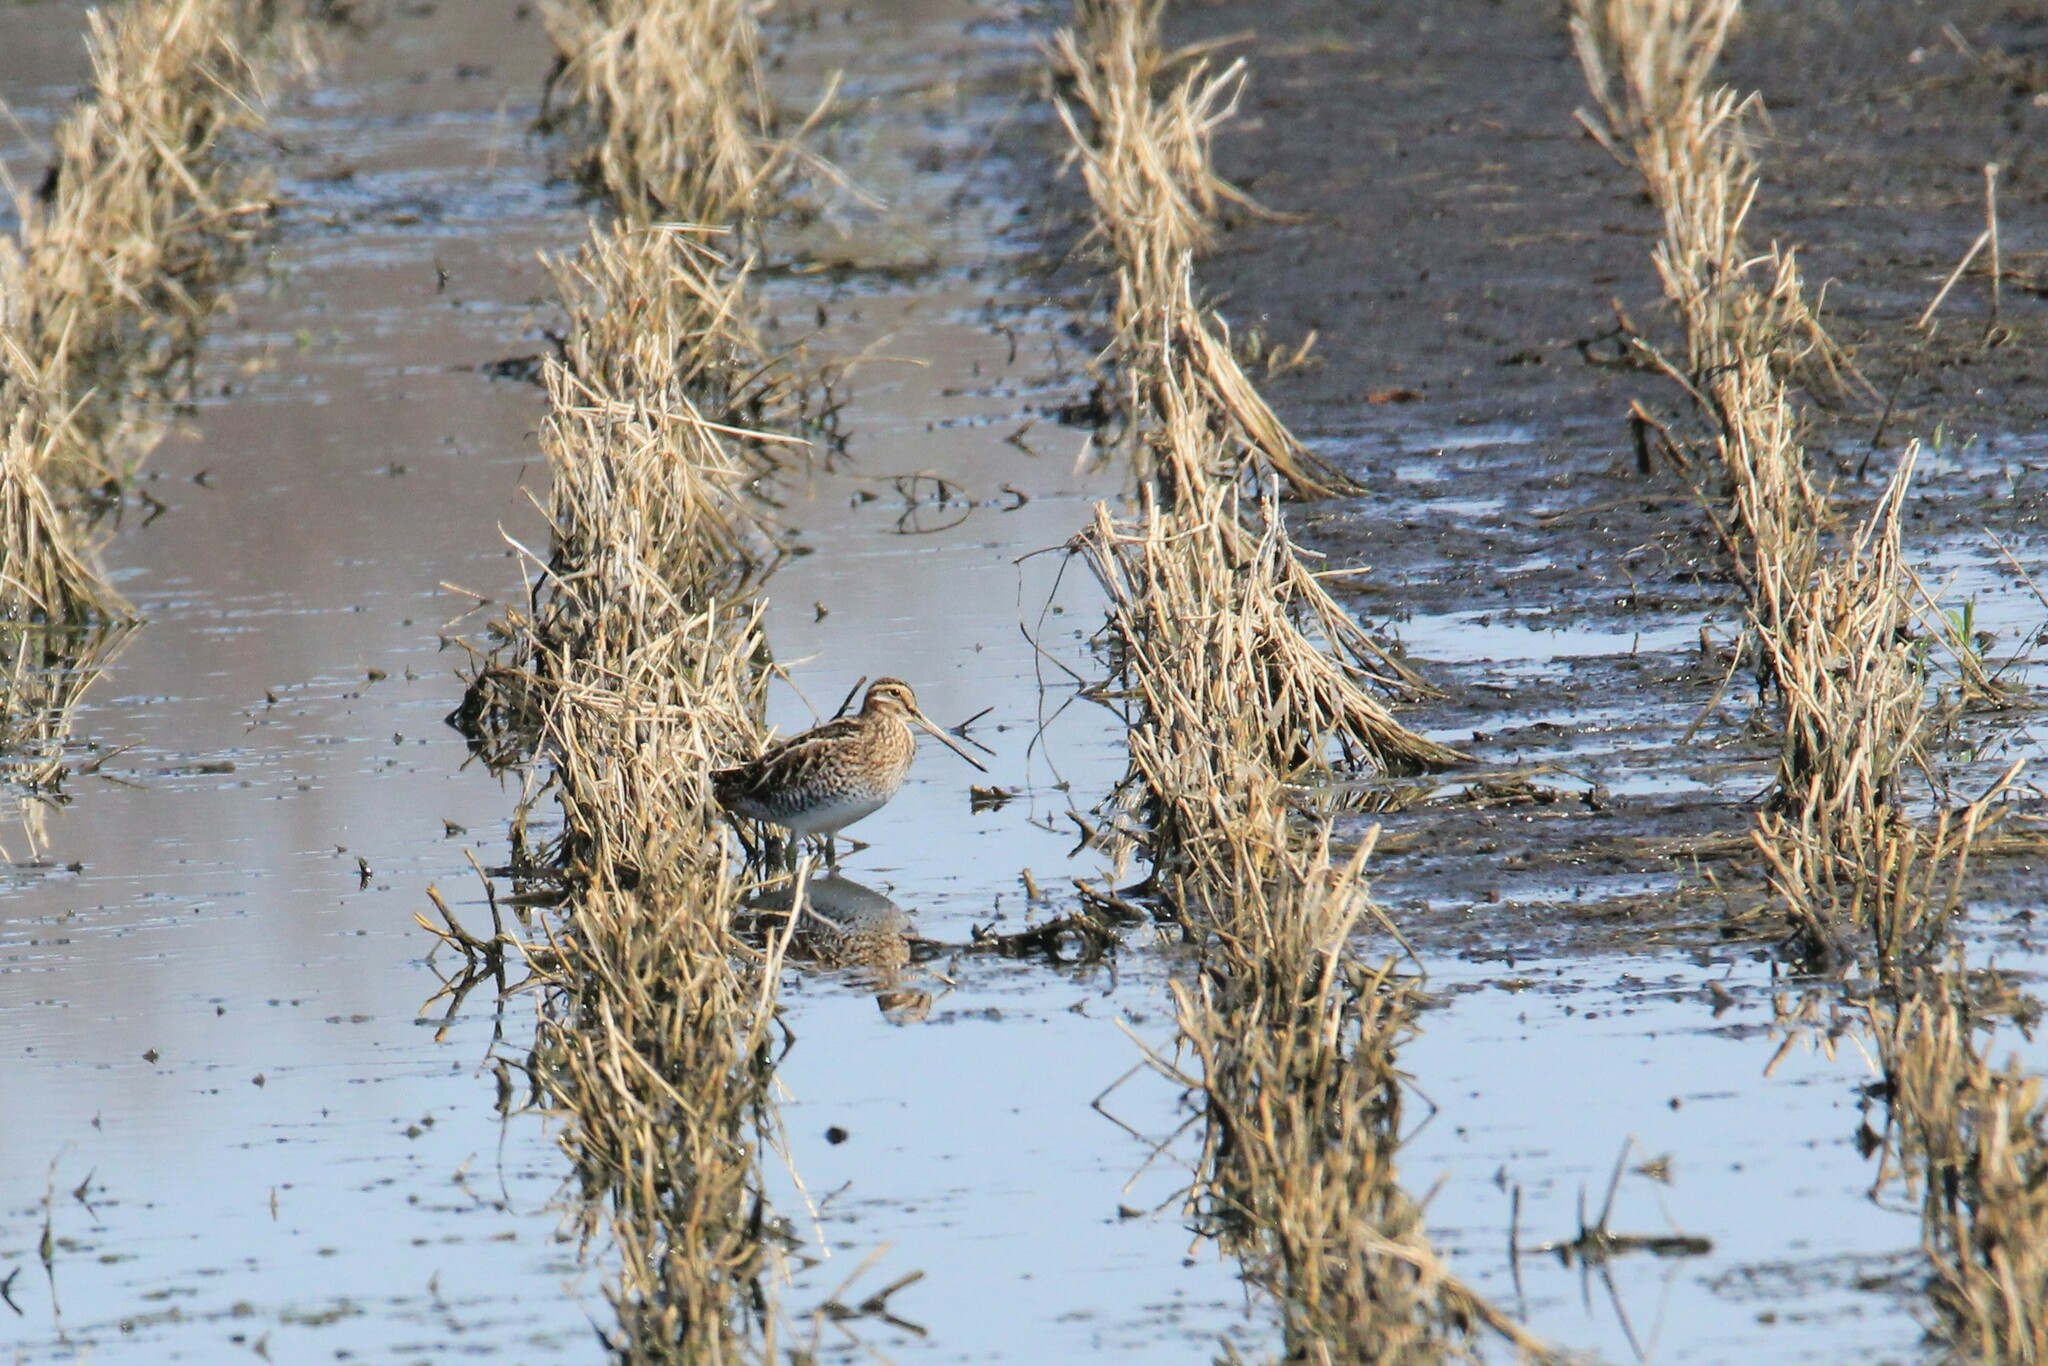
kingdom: Animalia
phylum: Chordata
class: Aves
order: Charadriiformes
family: Scolopacidae
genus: Gallinago
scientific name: Gallinago delicata
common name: Wilson's snipe
